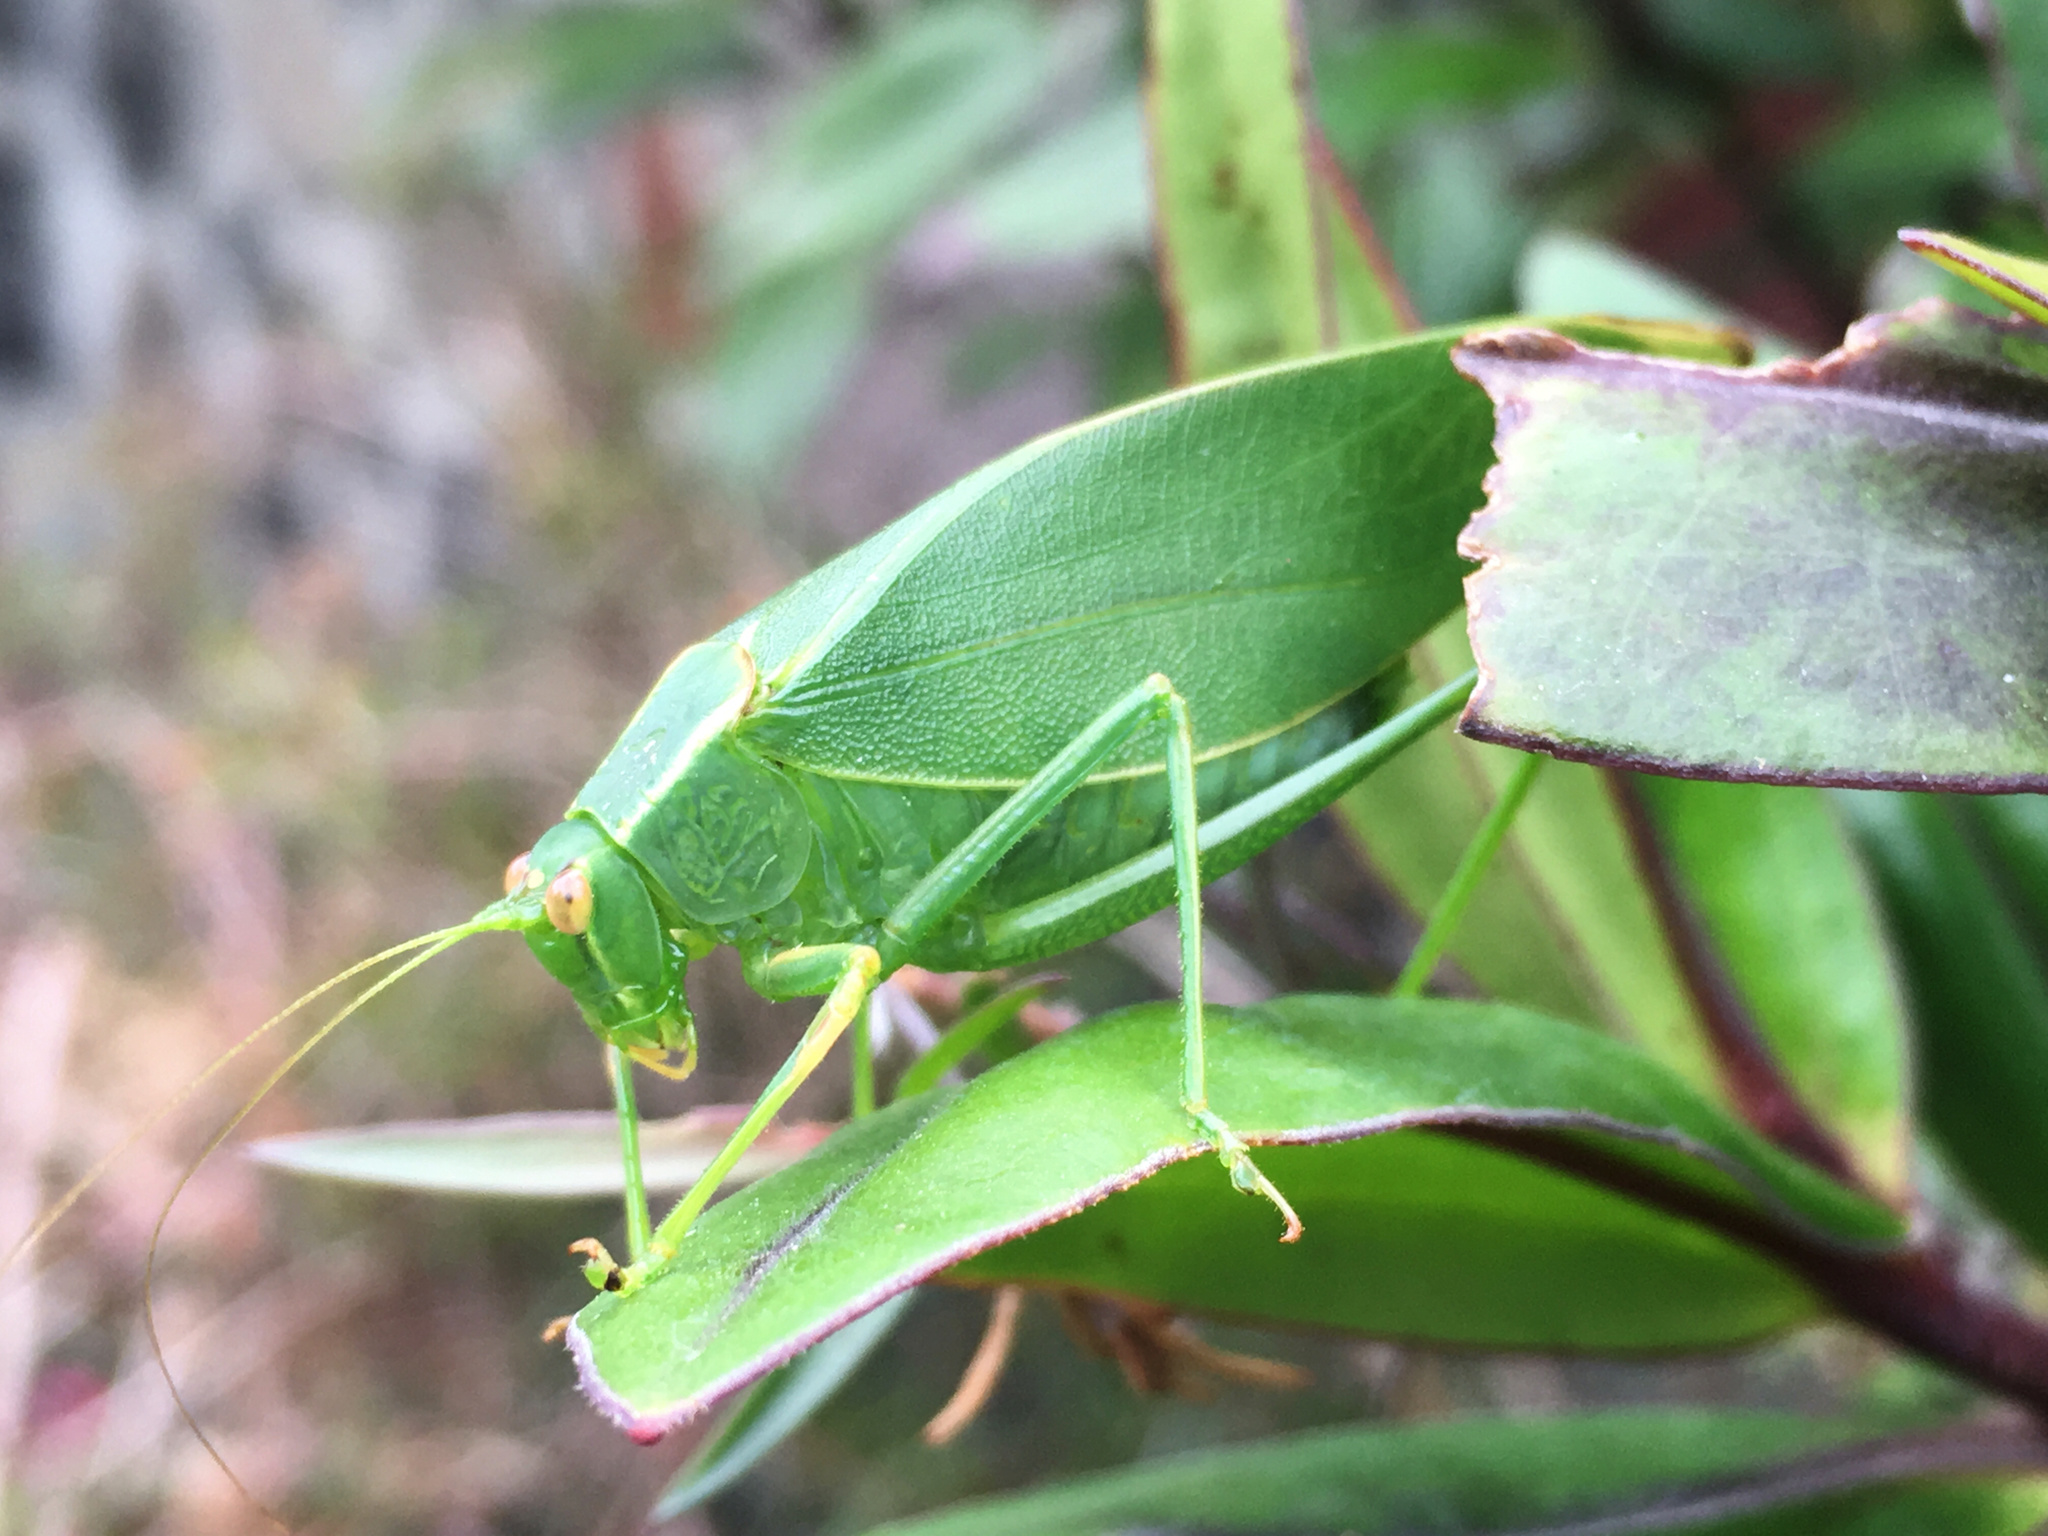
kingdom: Animalia
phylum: Arthropoda
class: Insecta
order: Orthoptera
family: Tettigoniidae
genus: Caedicia
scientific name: Caedicia simplex
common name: Common garden katydid
